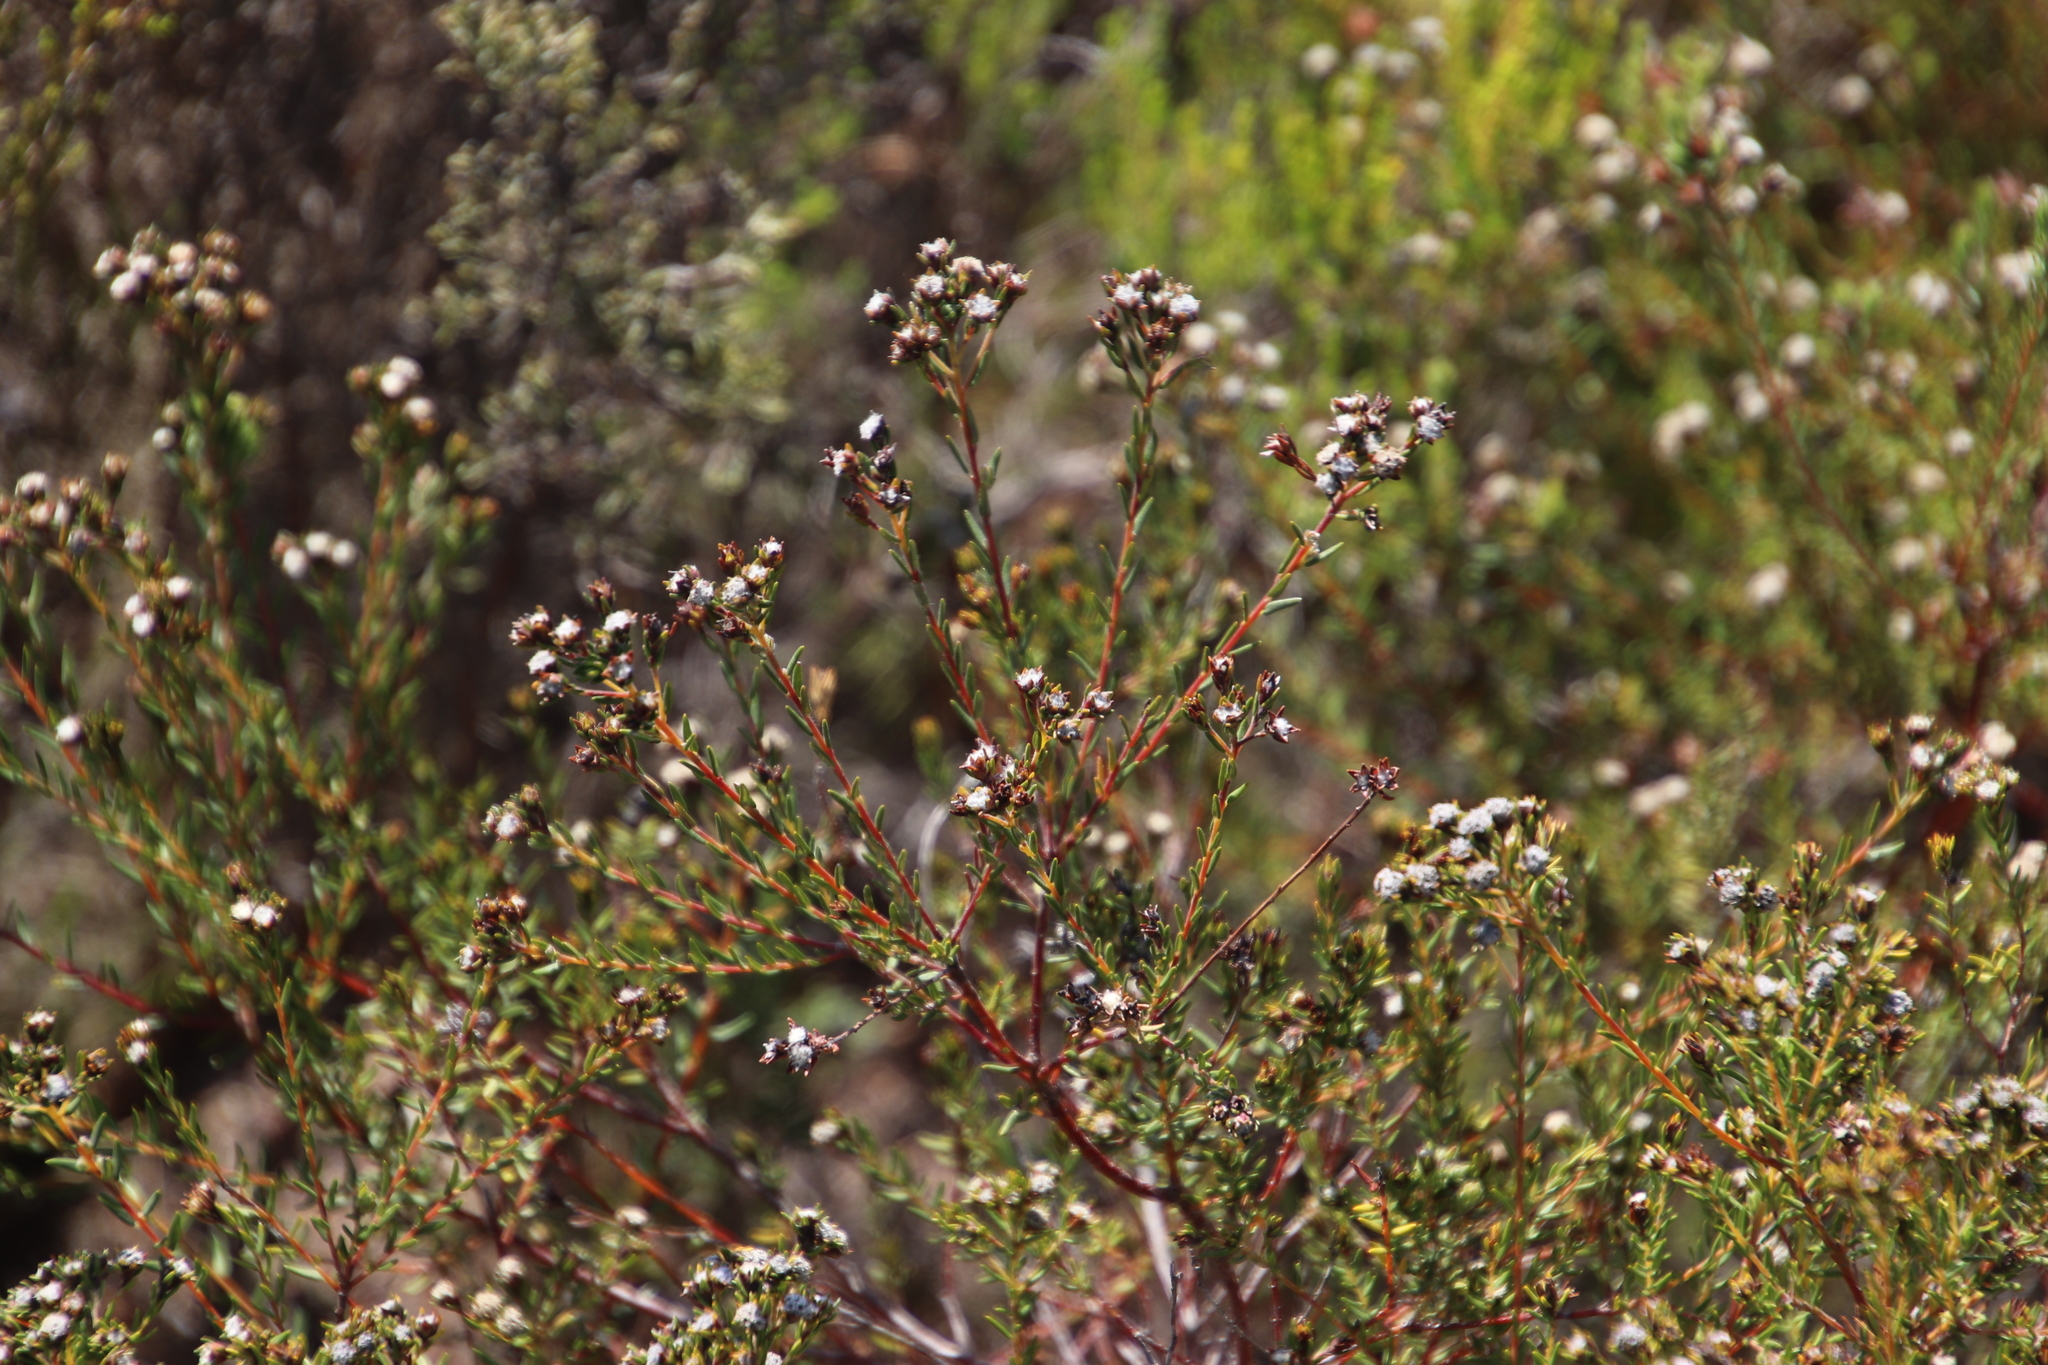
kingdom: Plantae
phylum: Tracheophyta
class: Magnoliopsida
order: Rosales
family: Rhamnaceae
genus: Phylica
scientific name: Phylica virgata
